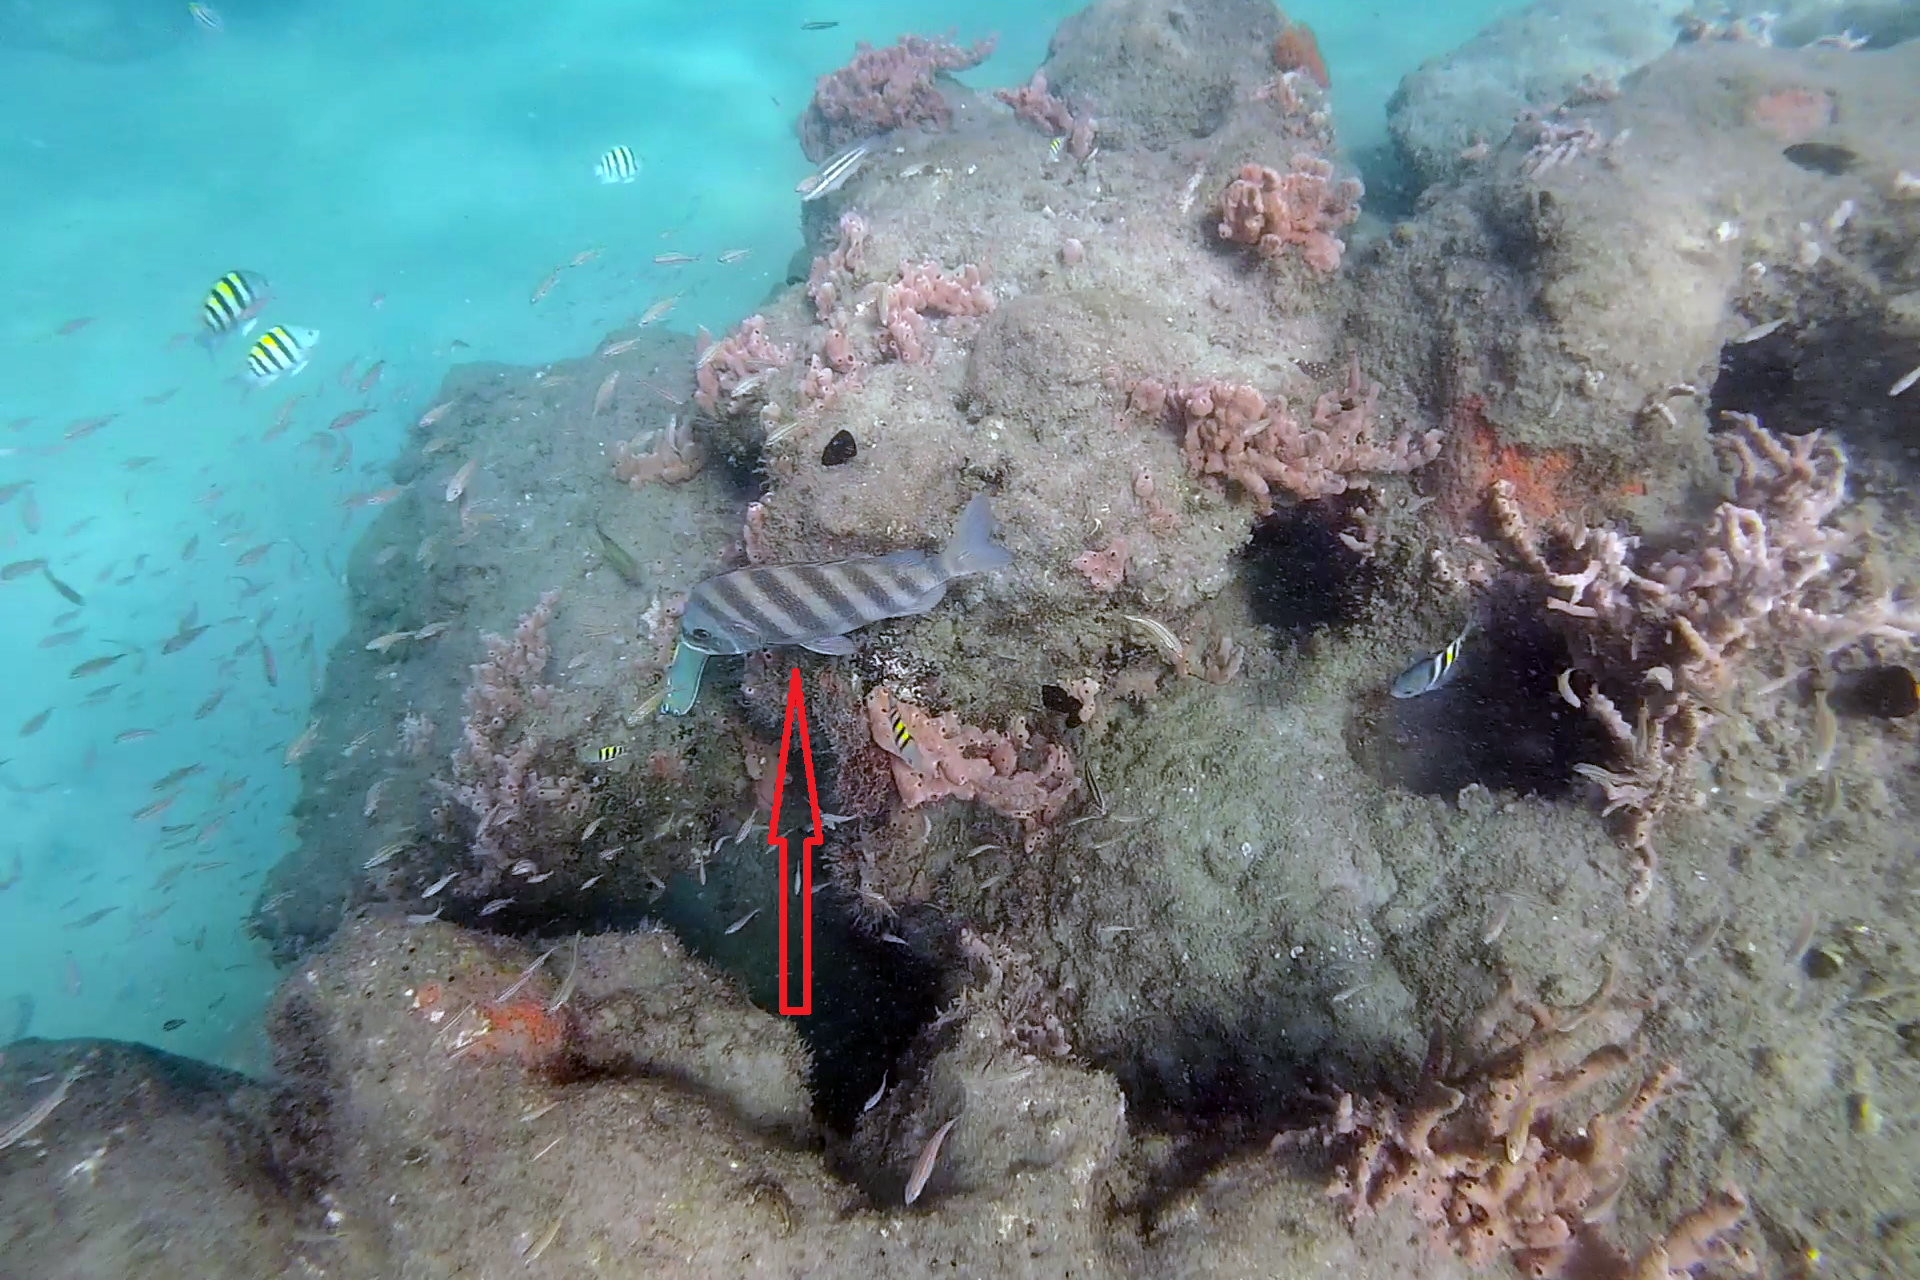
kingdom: Animalia
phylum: Chordata
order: Perciformes
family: Sparidae
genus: Archosargus
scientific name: Archosargus probatocephalus
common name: Sheepshead
